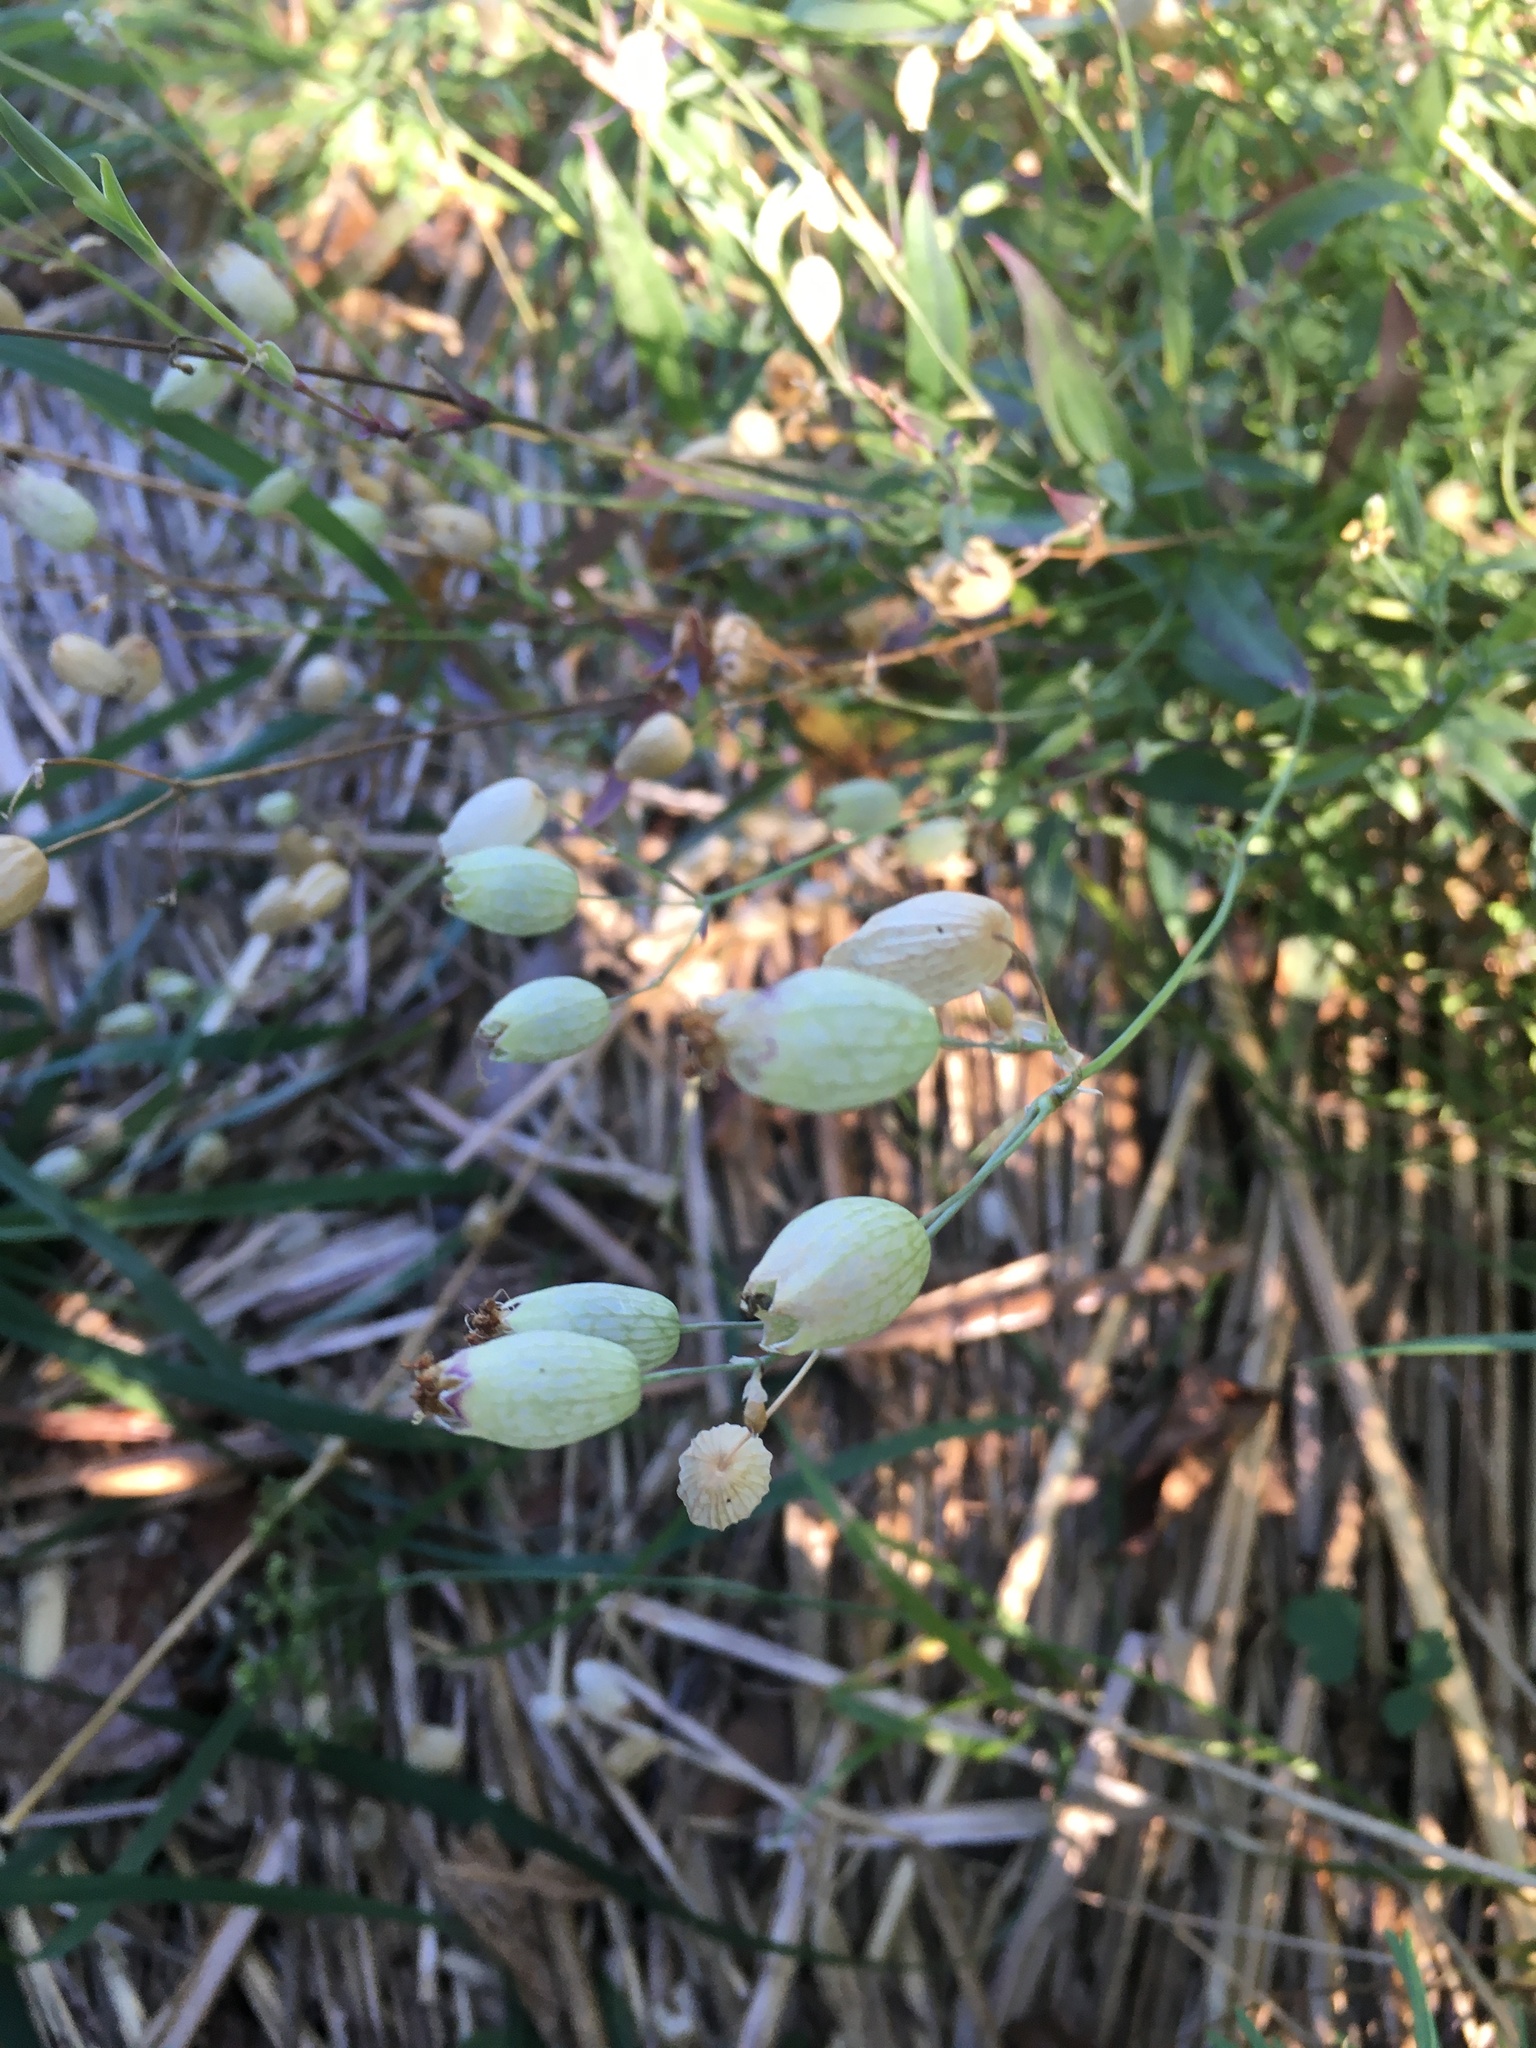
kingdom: Plantae
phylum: Tracheophyta
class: Magnoliopsida
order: Caryophyllales
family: Caryophyllaceae
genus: Silene
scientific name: Silene vulgaris
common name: Bladder campion
